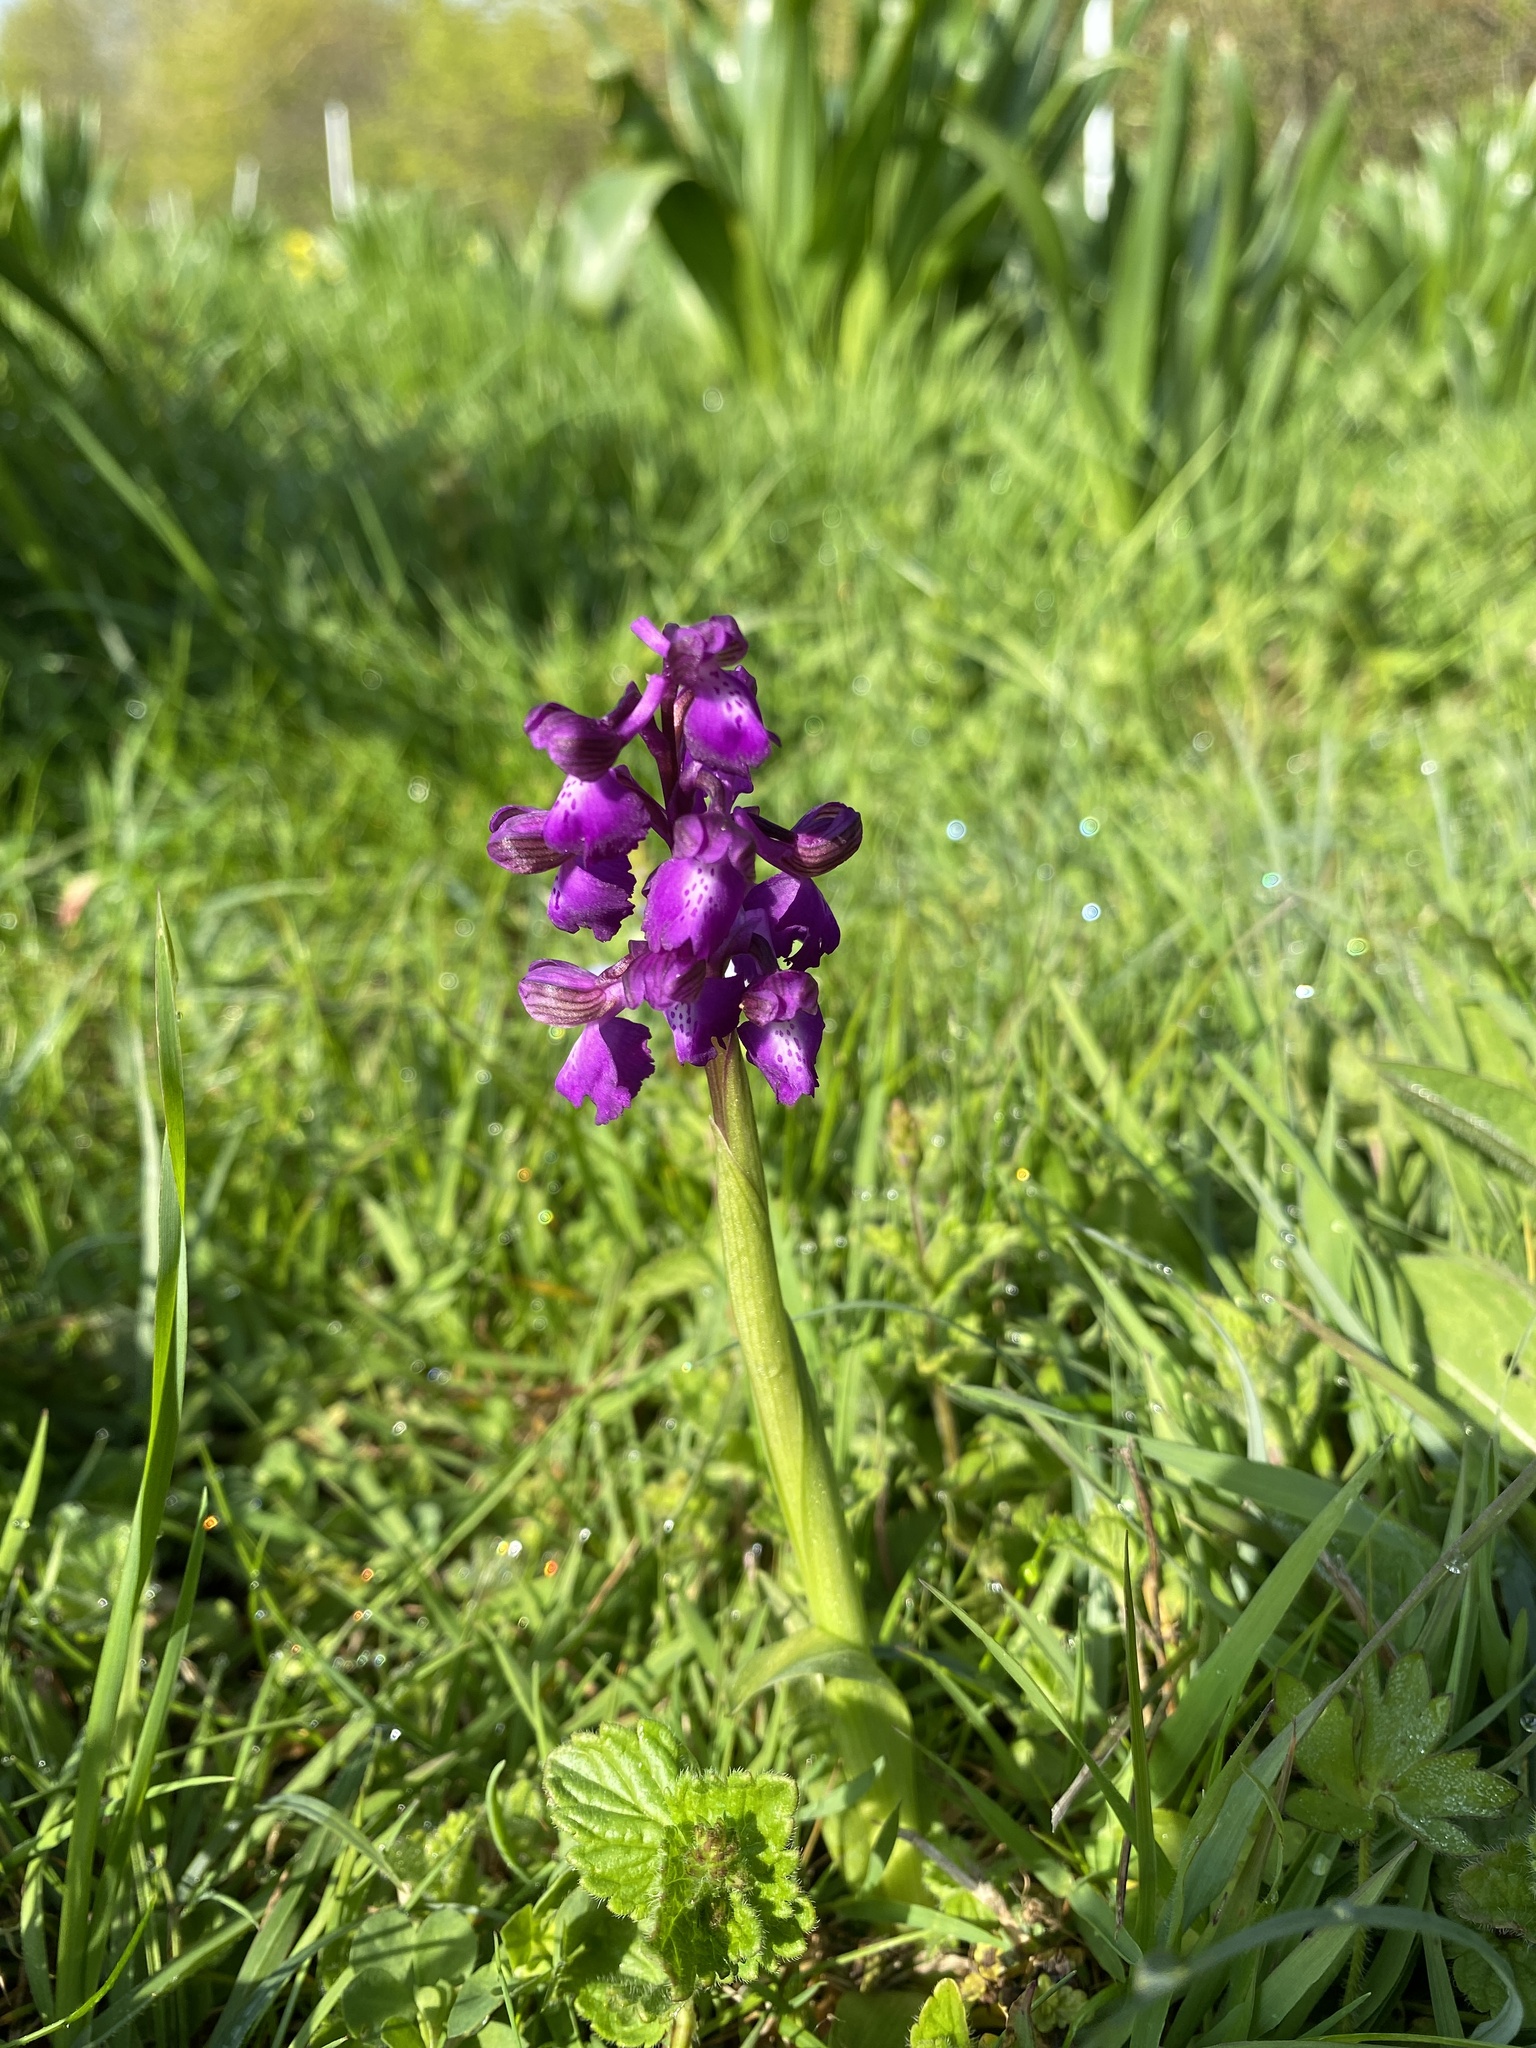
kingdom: Plantae
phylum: Tracheophyta
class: Liliopsida
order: Asparagales
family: Orchidaceae
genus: Anacamptis
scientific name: Anacamptis morio
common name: Green-winged orchid
